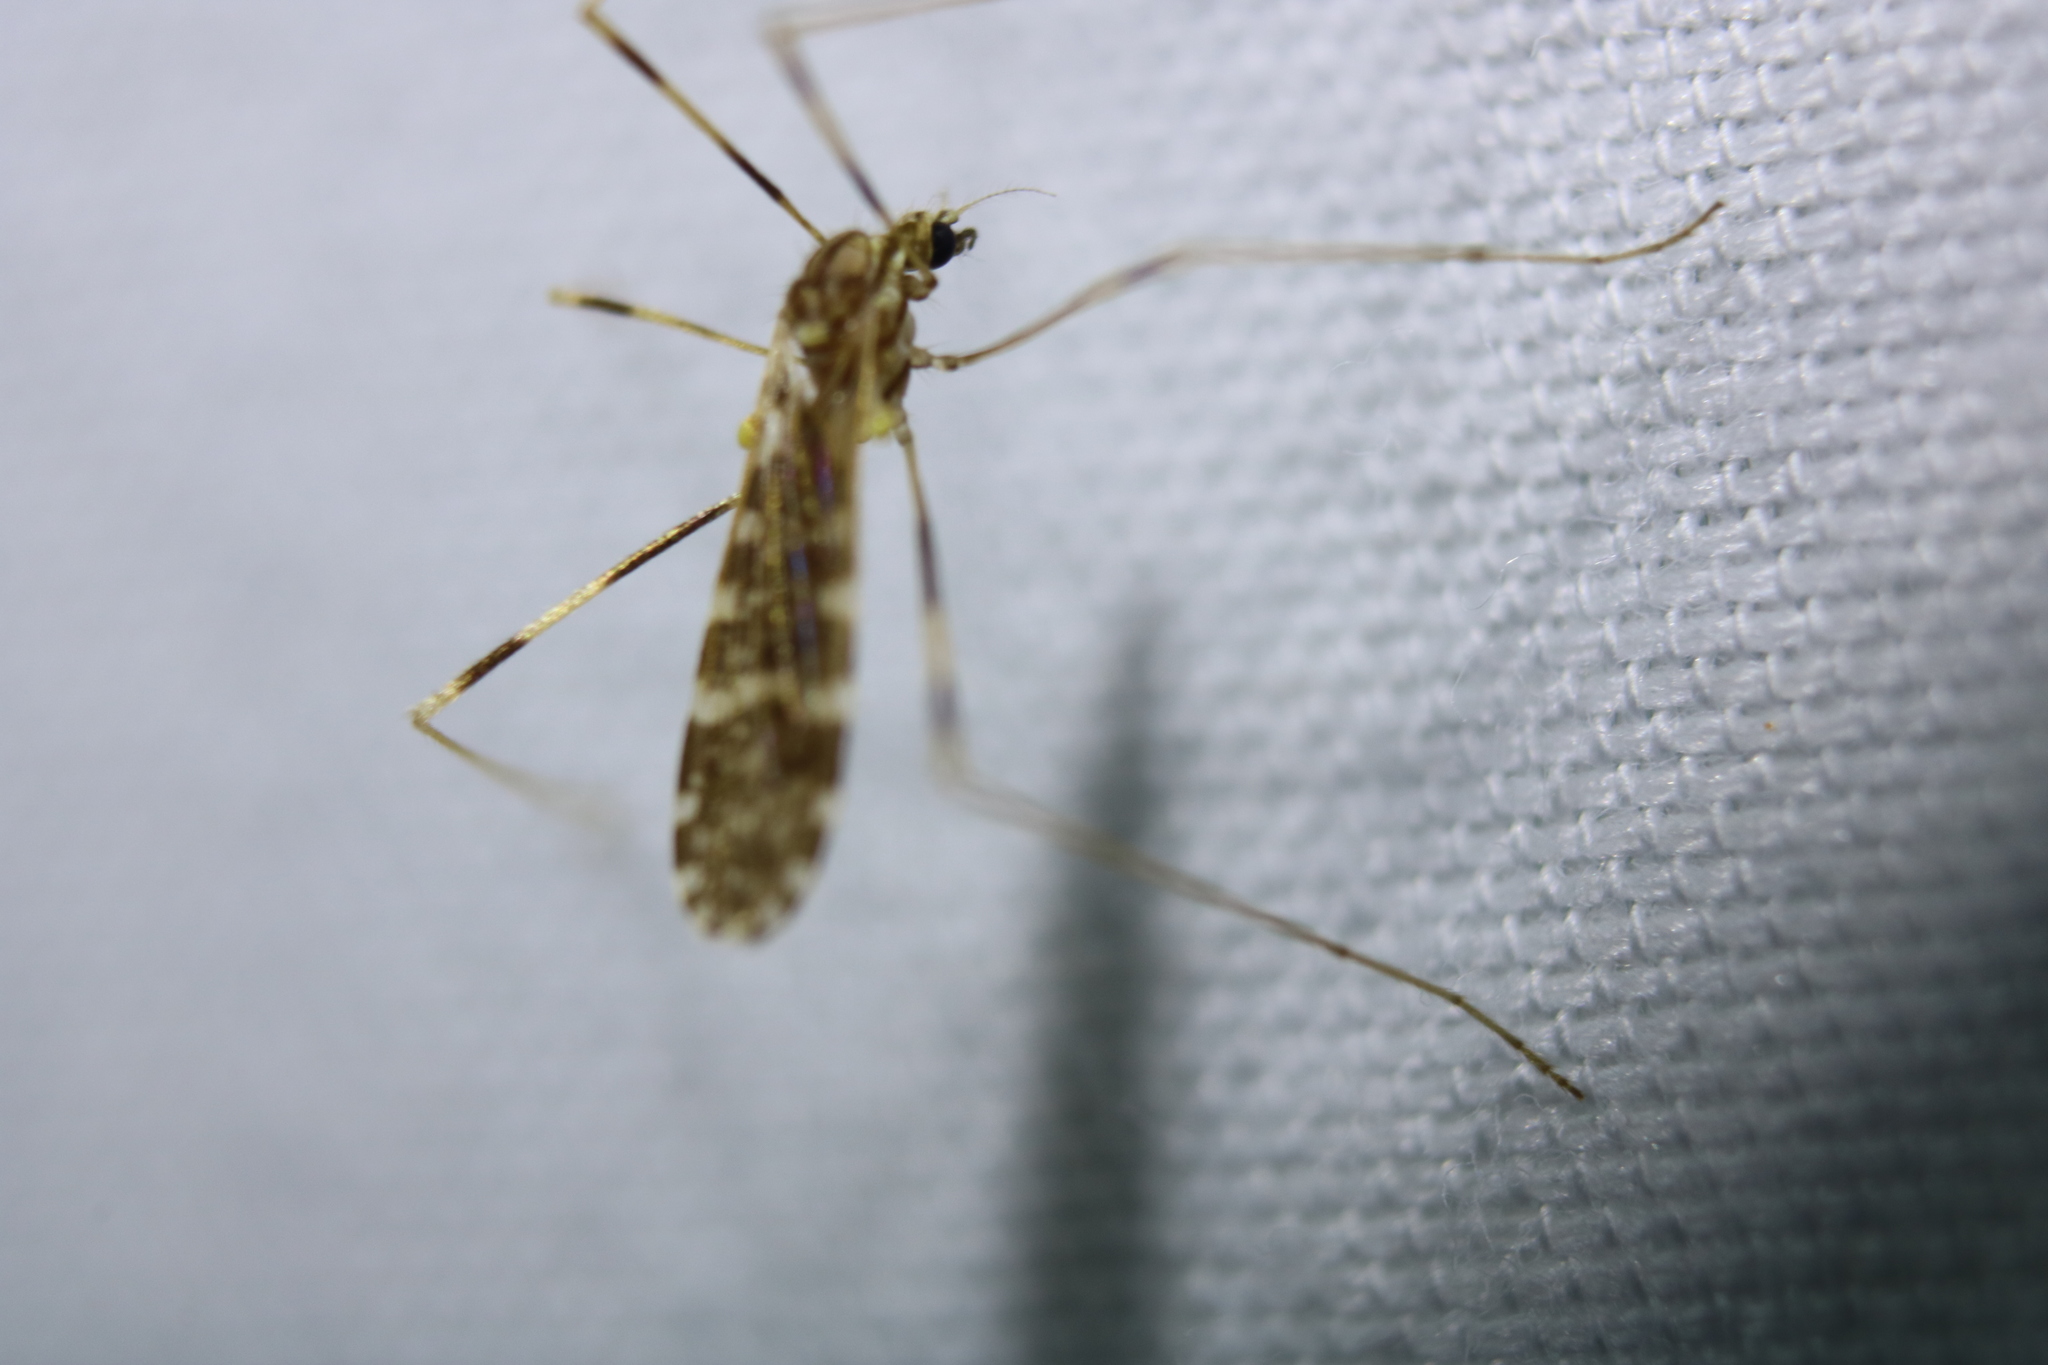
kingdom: Animalia
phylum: Arthropoda
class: Insecta
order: Diptera
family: Limoniidae
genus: Erioptera
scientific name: Erioptera caliptera
